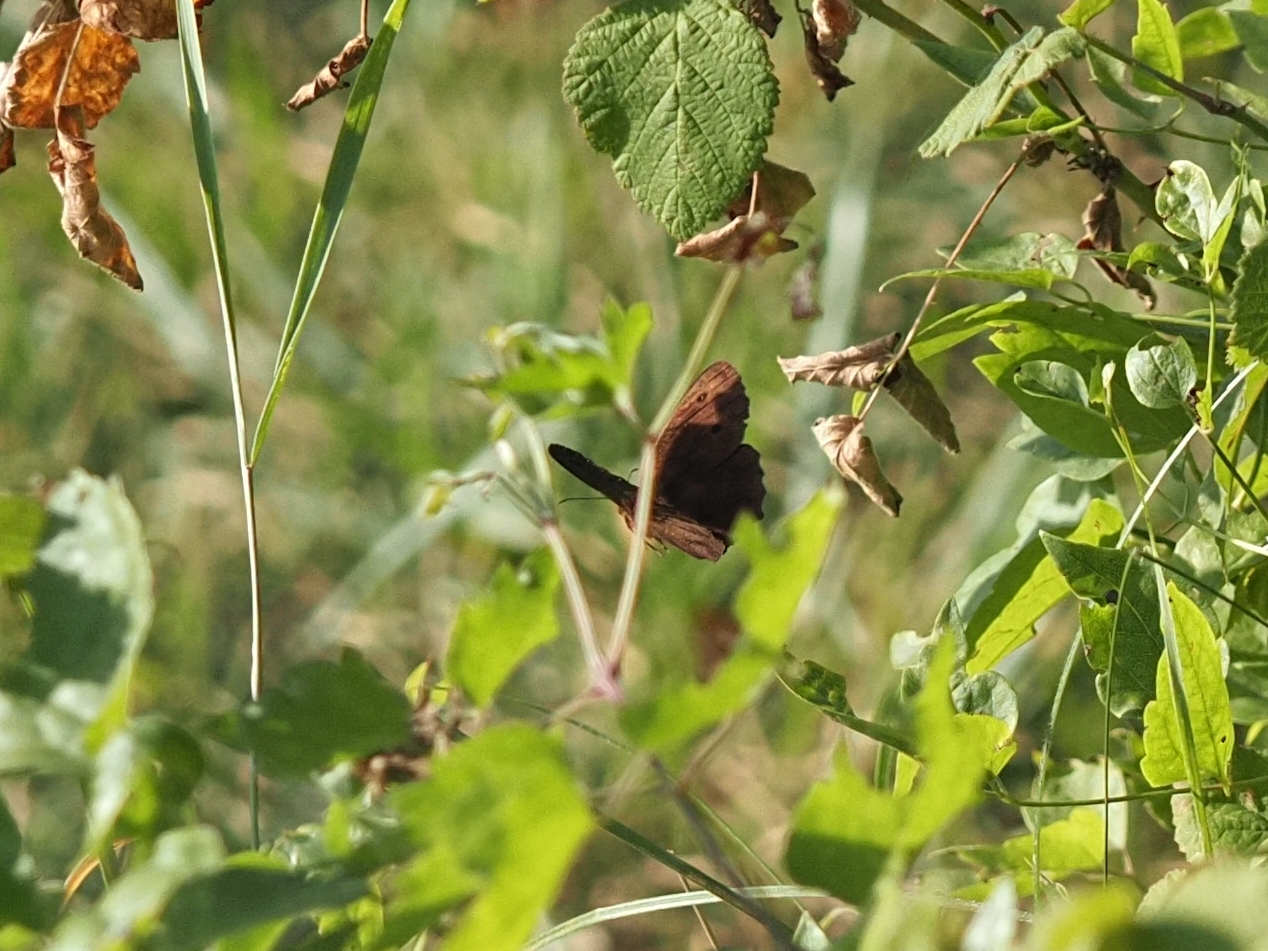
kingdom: Animalia
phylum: Arthropoda
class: Insecta
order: Lepidoptera
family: Nymphalidae
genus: Minois
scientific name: Minois dryas
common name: Dryad
